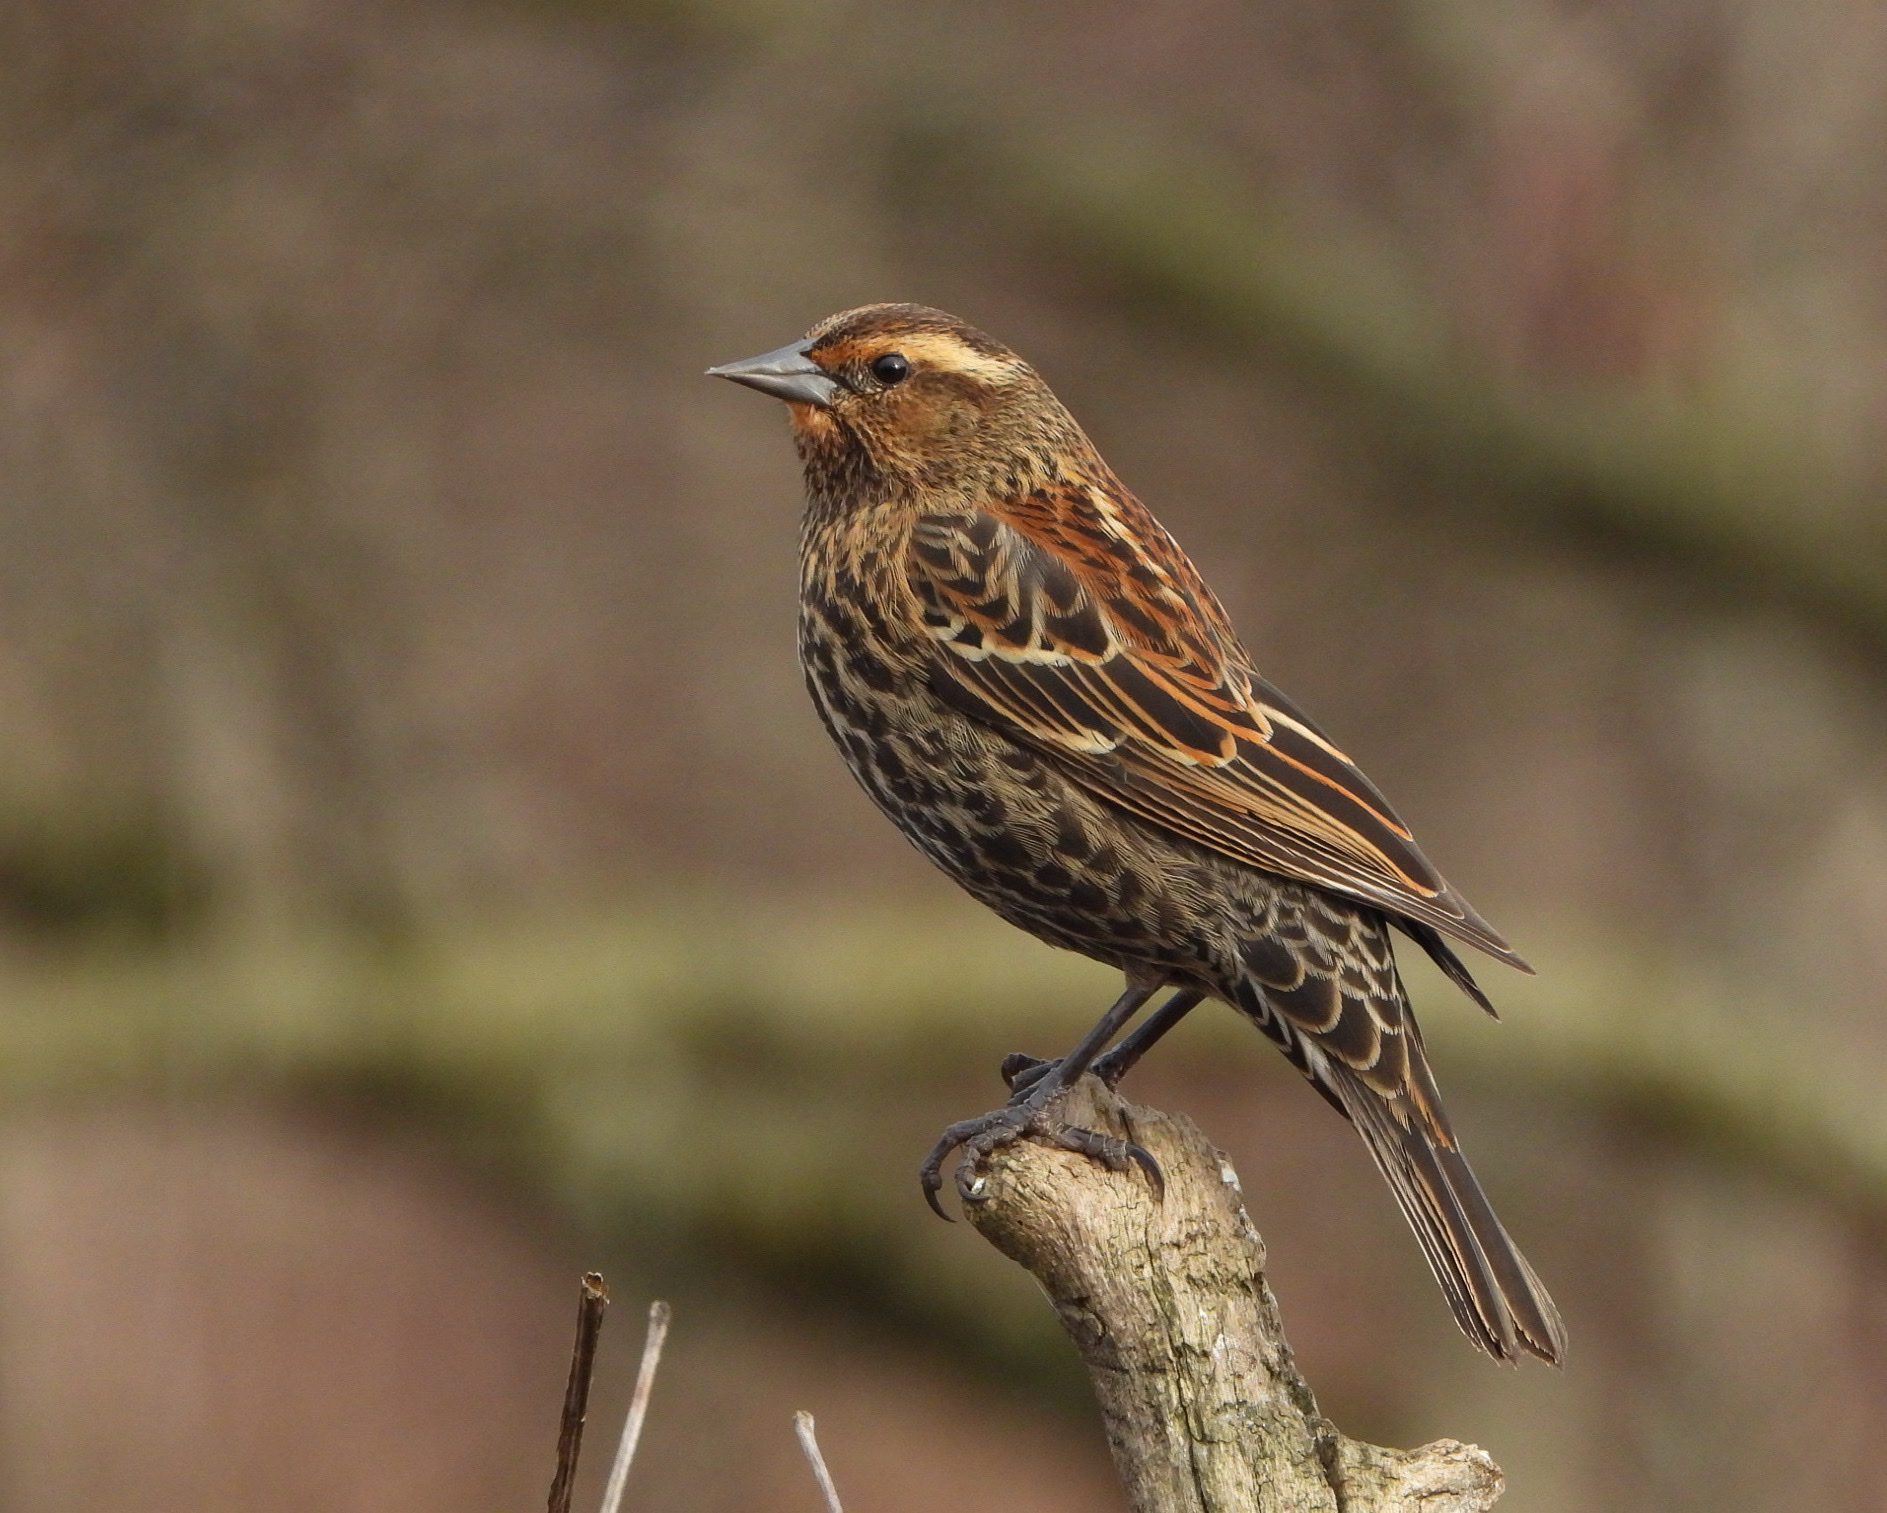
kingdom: Animalia
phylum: Chordata
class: Aves
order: Passeriformes
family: Icteridae
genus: Agelaius
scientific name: Agelaius phoeniceus
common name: Red-winged blackbird
